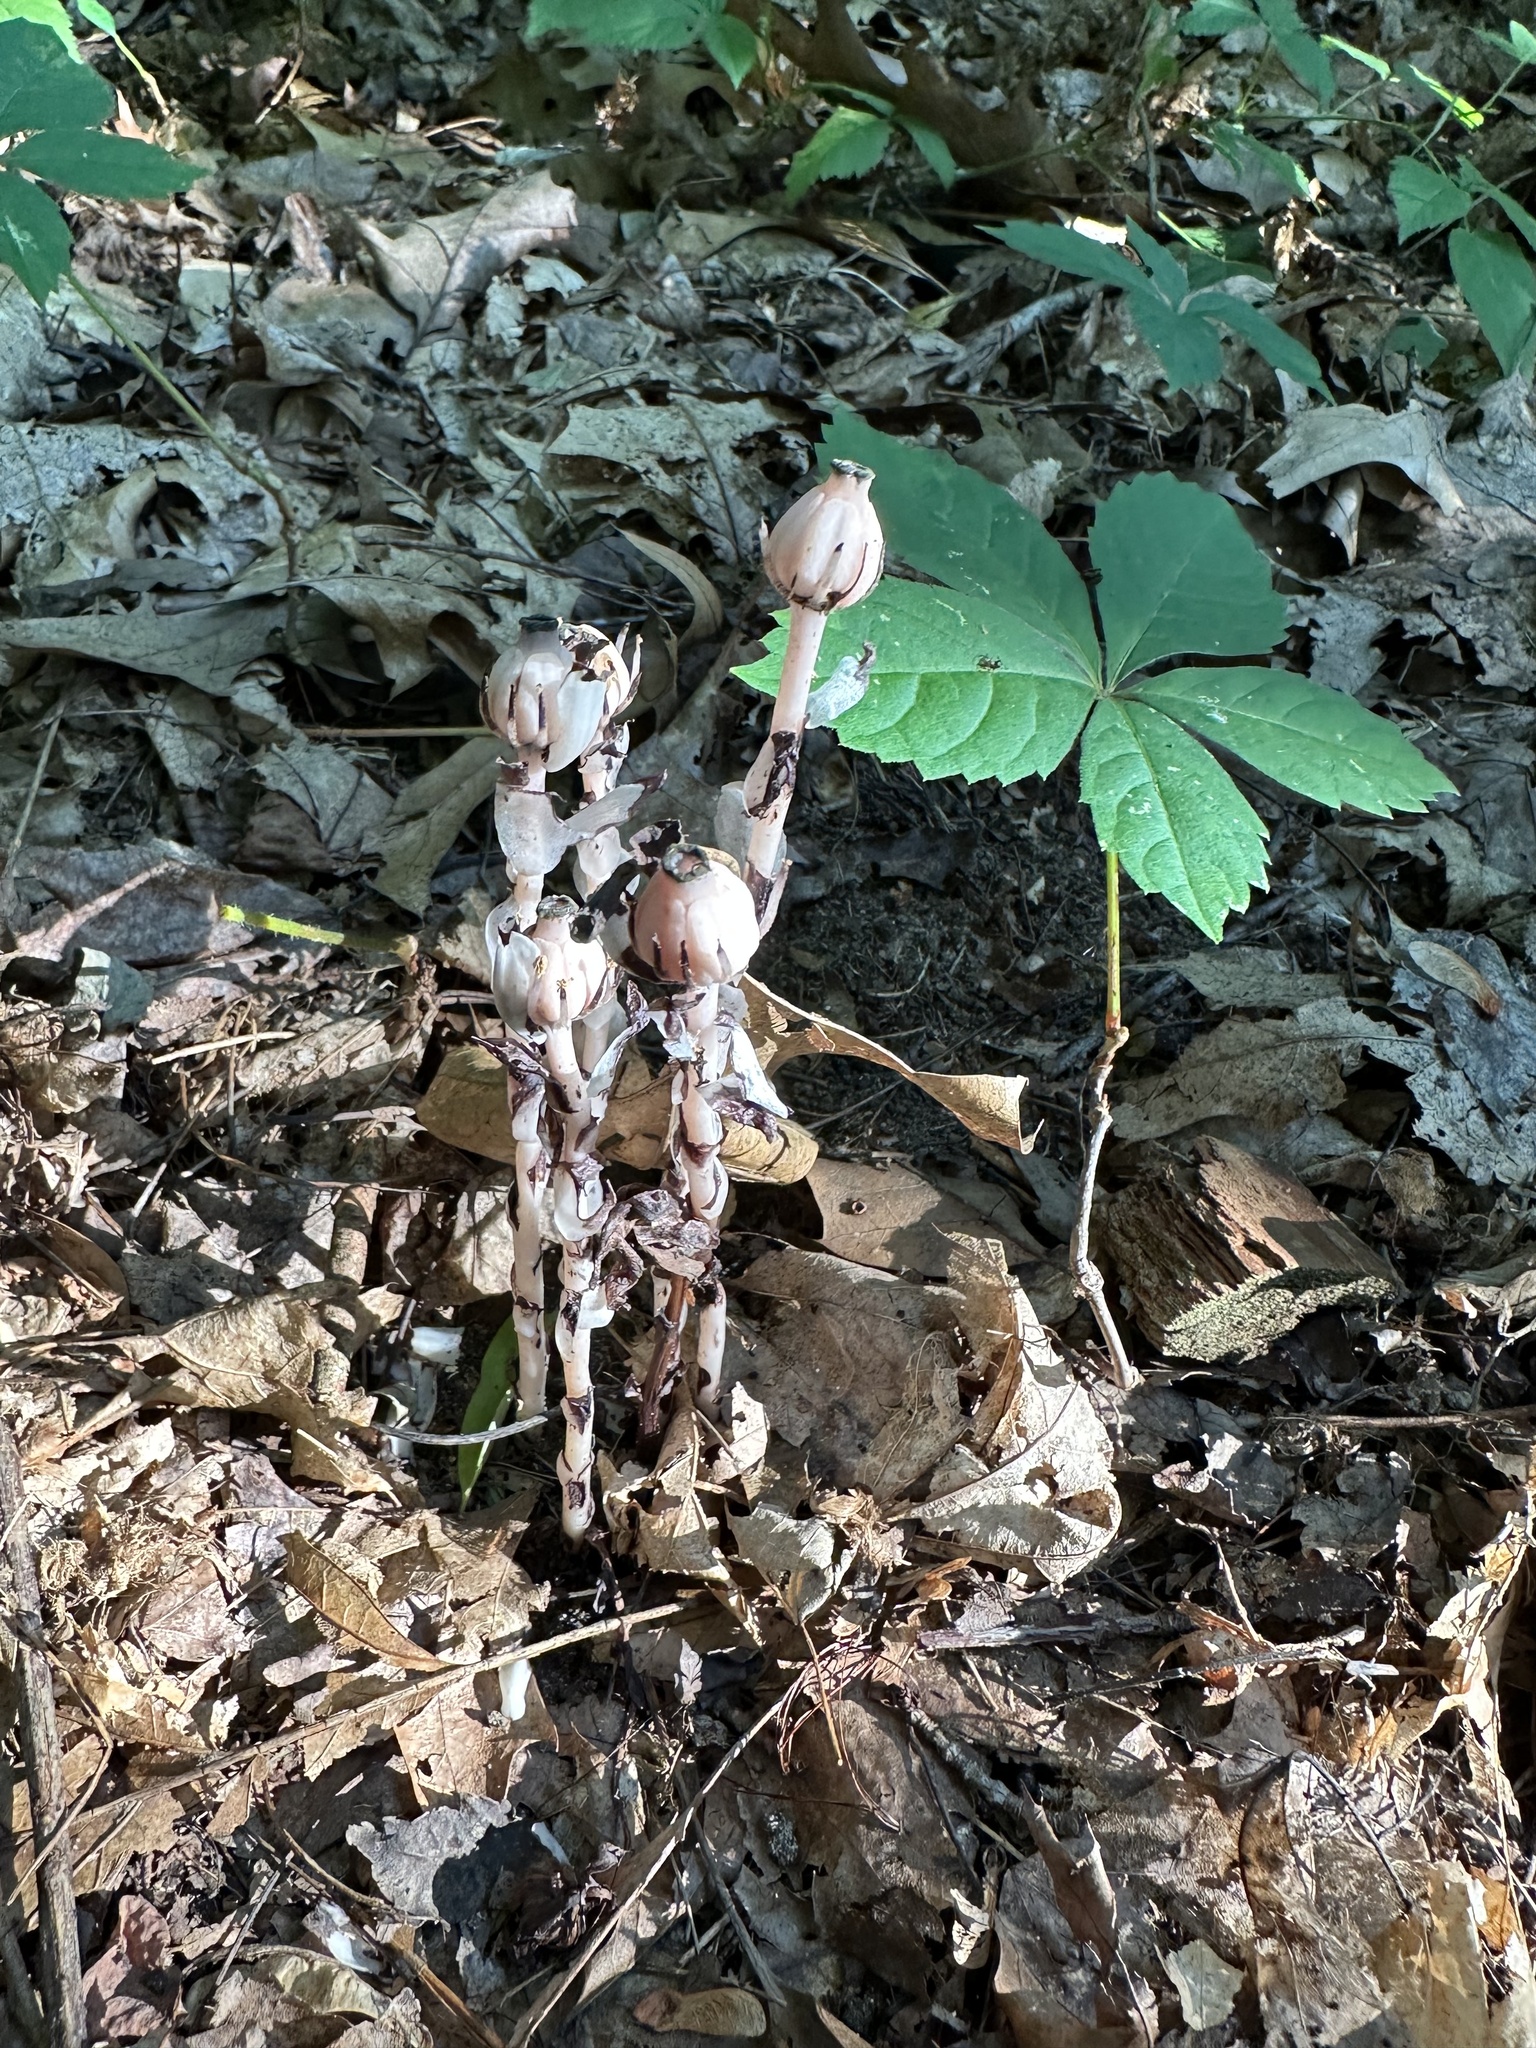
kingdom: Plantae
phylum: Tracheophyta
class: Magnoliopsida
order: Ericales
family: Ericaceae
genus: Monotropa
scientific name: Monotropa uniflora
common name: Convulsion root
